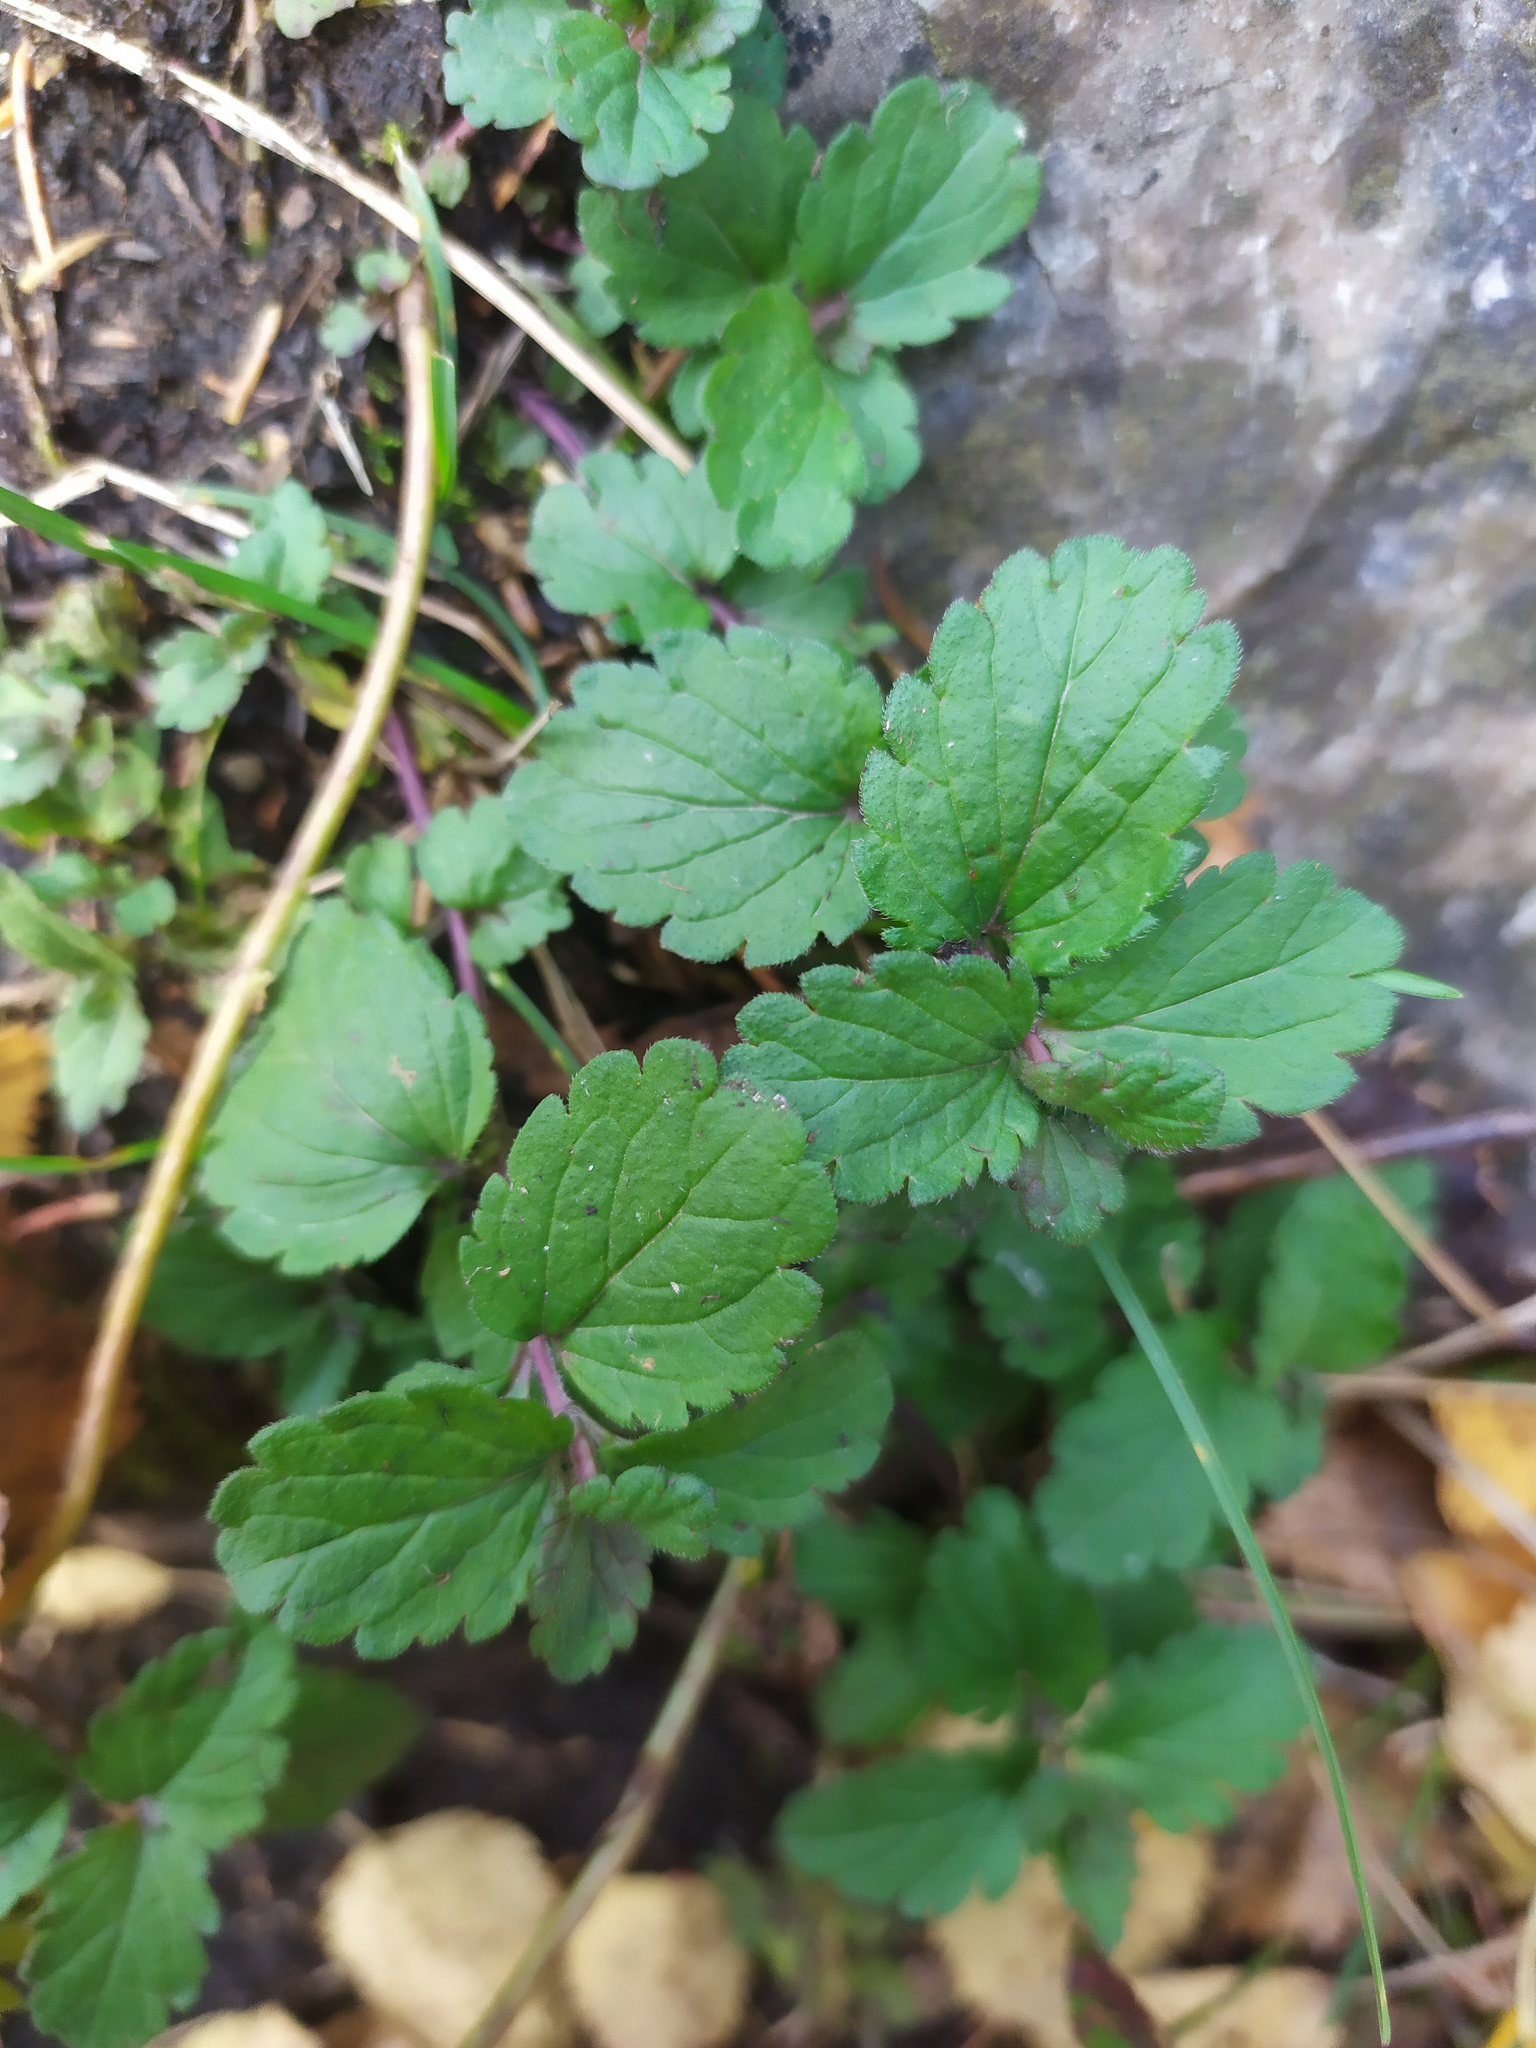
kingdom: Plantae
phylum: Tracheophyta
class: Magnoliopsida
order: Lamiales
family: Plantaginaceae
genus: Veronica
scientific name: Veronica chamaedrys
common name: Germander speedwell
